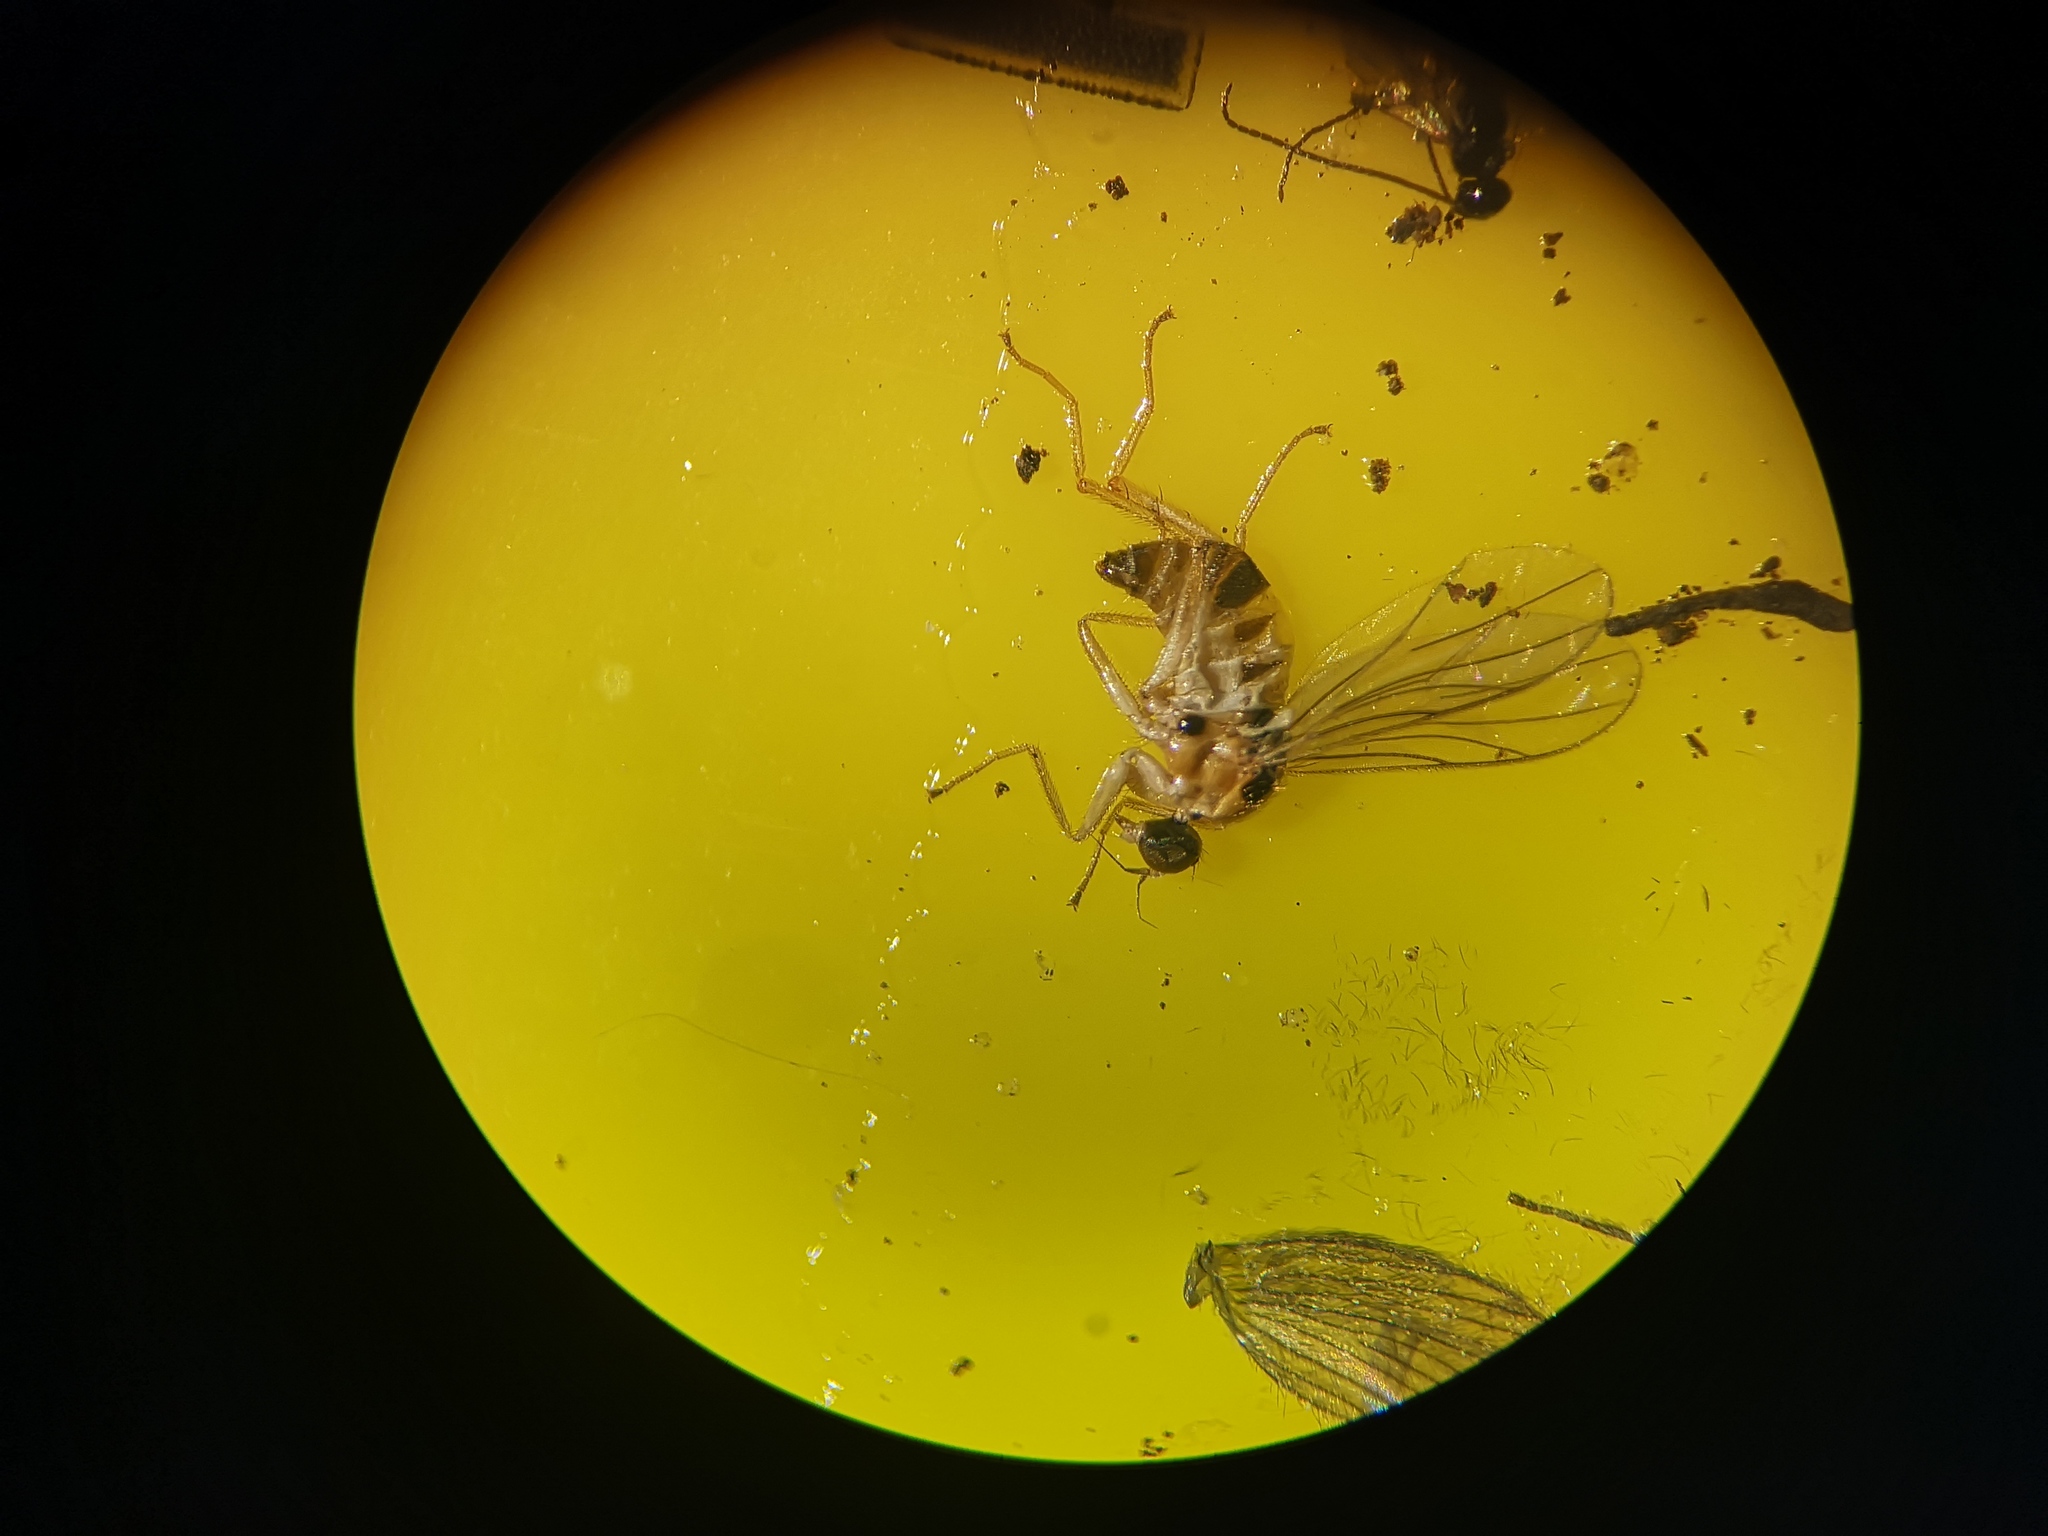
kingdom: Animalia
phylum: Arthropoda
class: Insecta
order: Diptera
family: Hybotidae
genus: Drapetis
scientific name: Drapetis ephippiata
